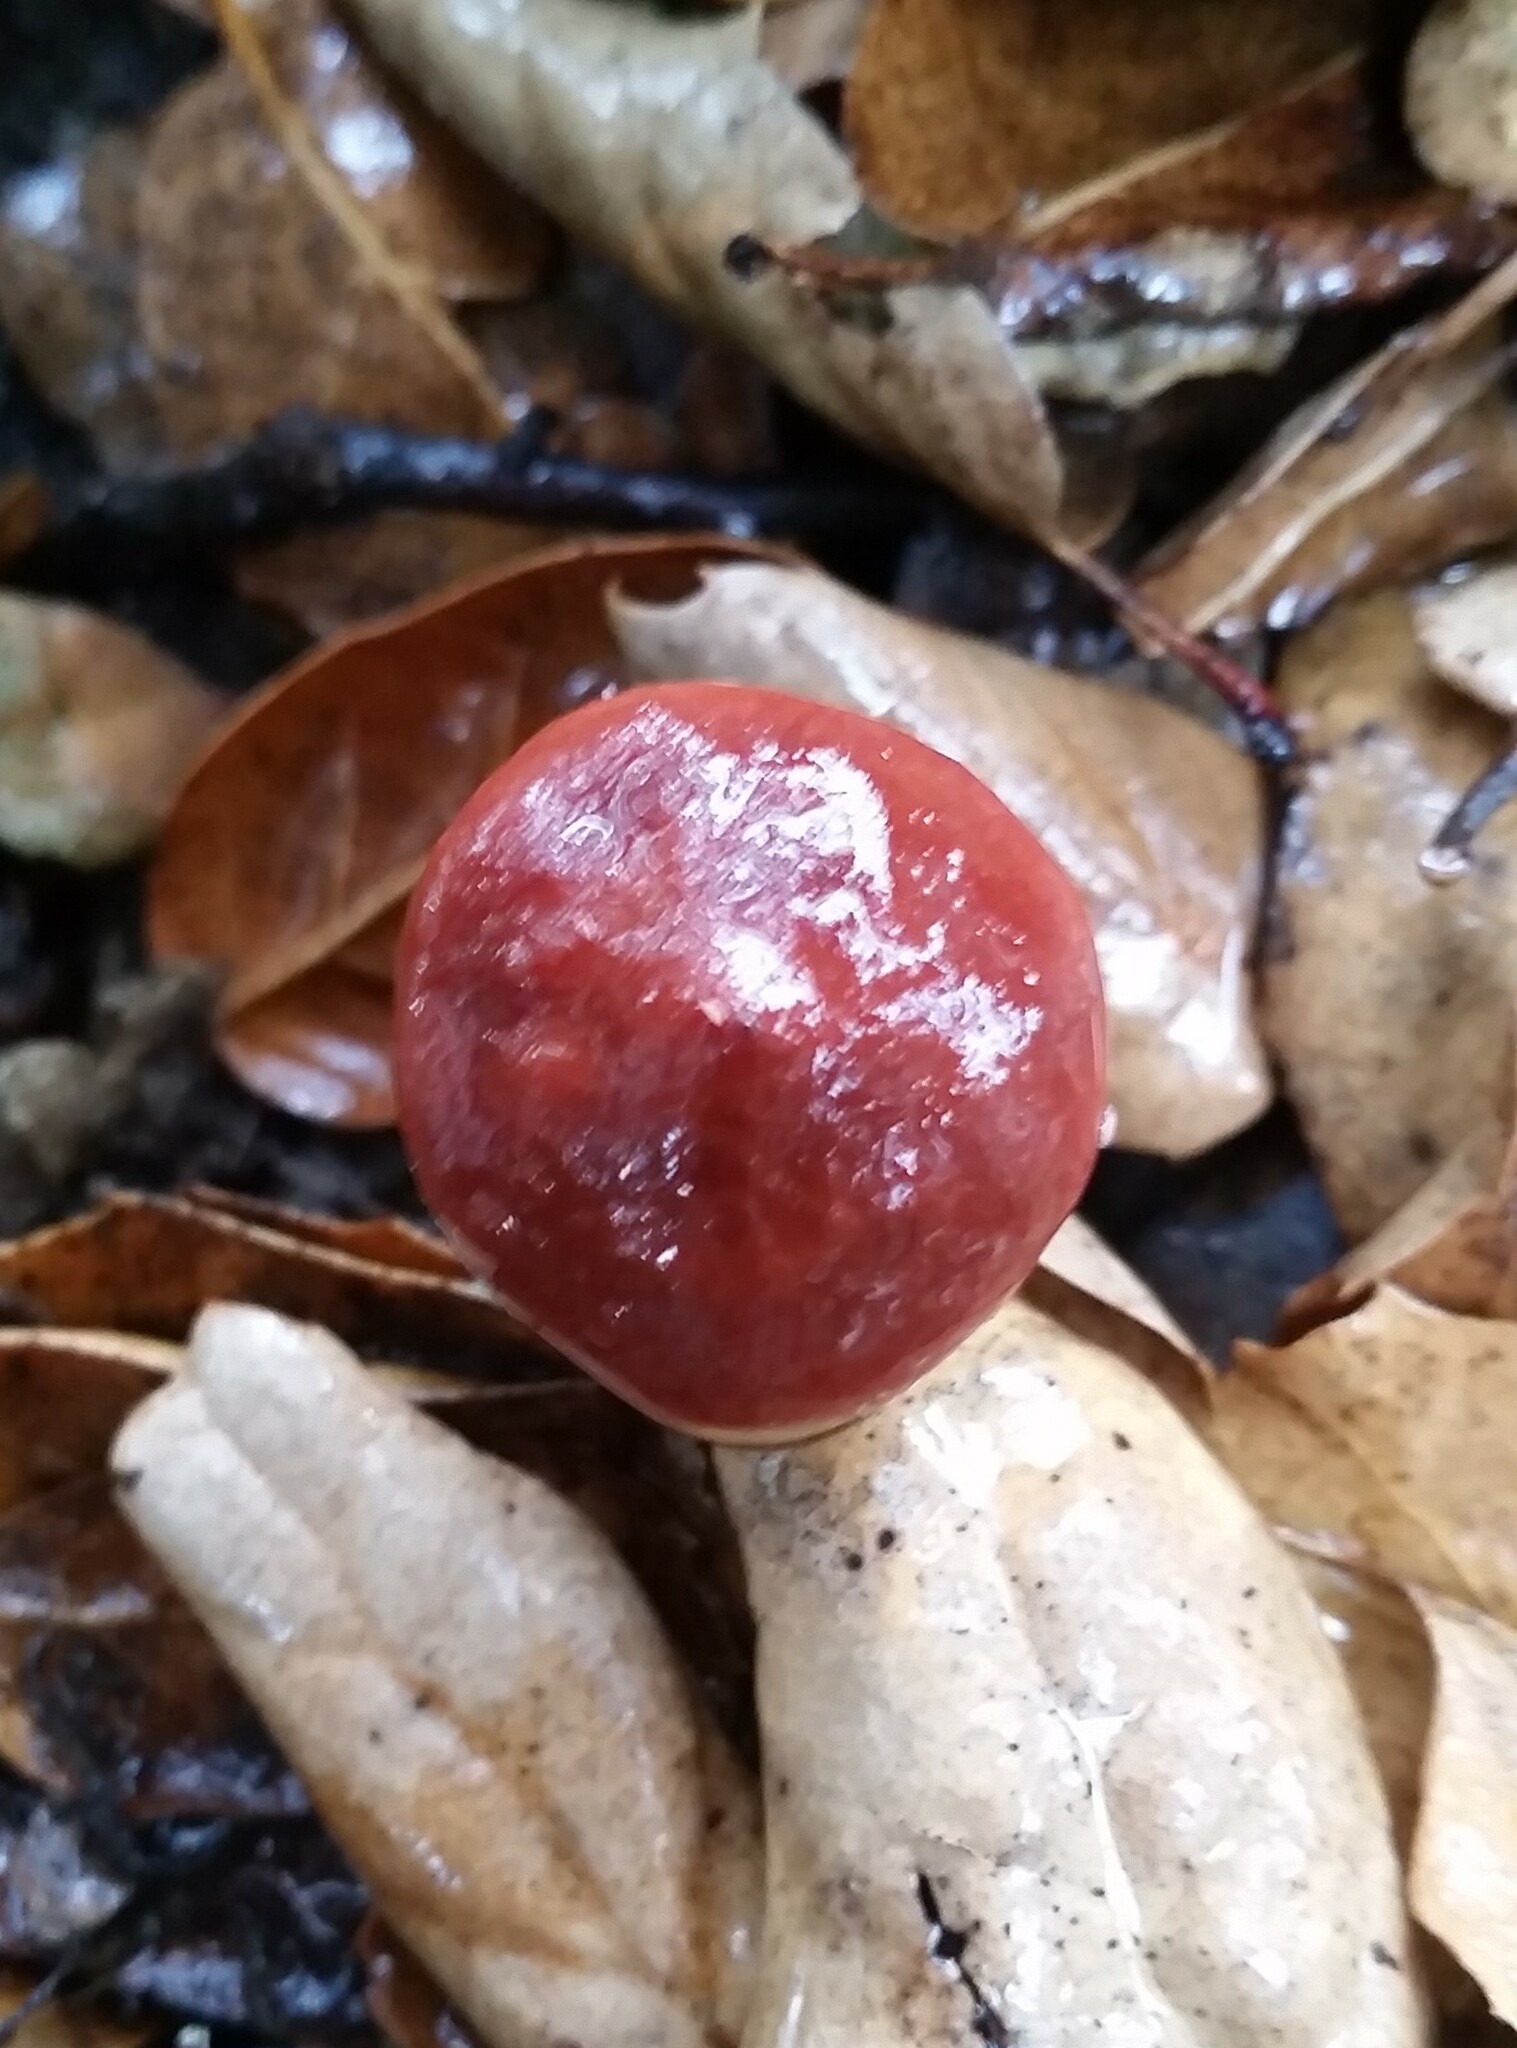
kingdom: Fungi
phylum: Basidiomycota
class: Agaricomycetes
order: Russulales
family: Russulaceae
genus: Lactarius
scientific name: Lactarius rufulus
